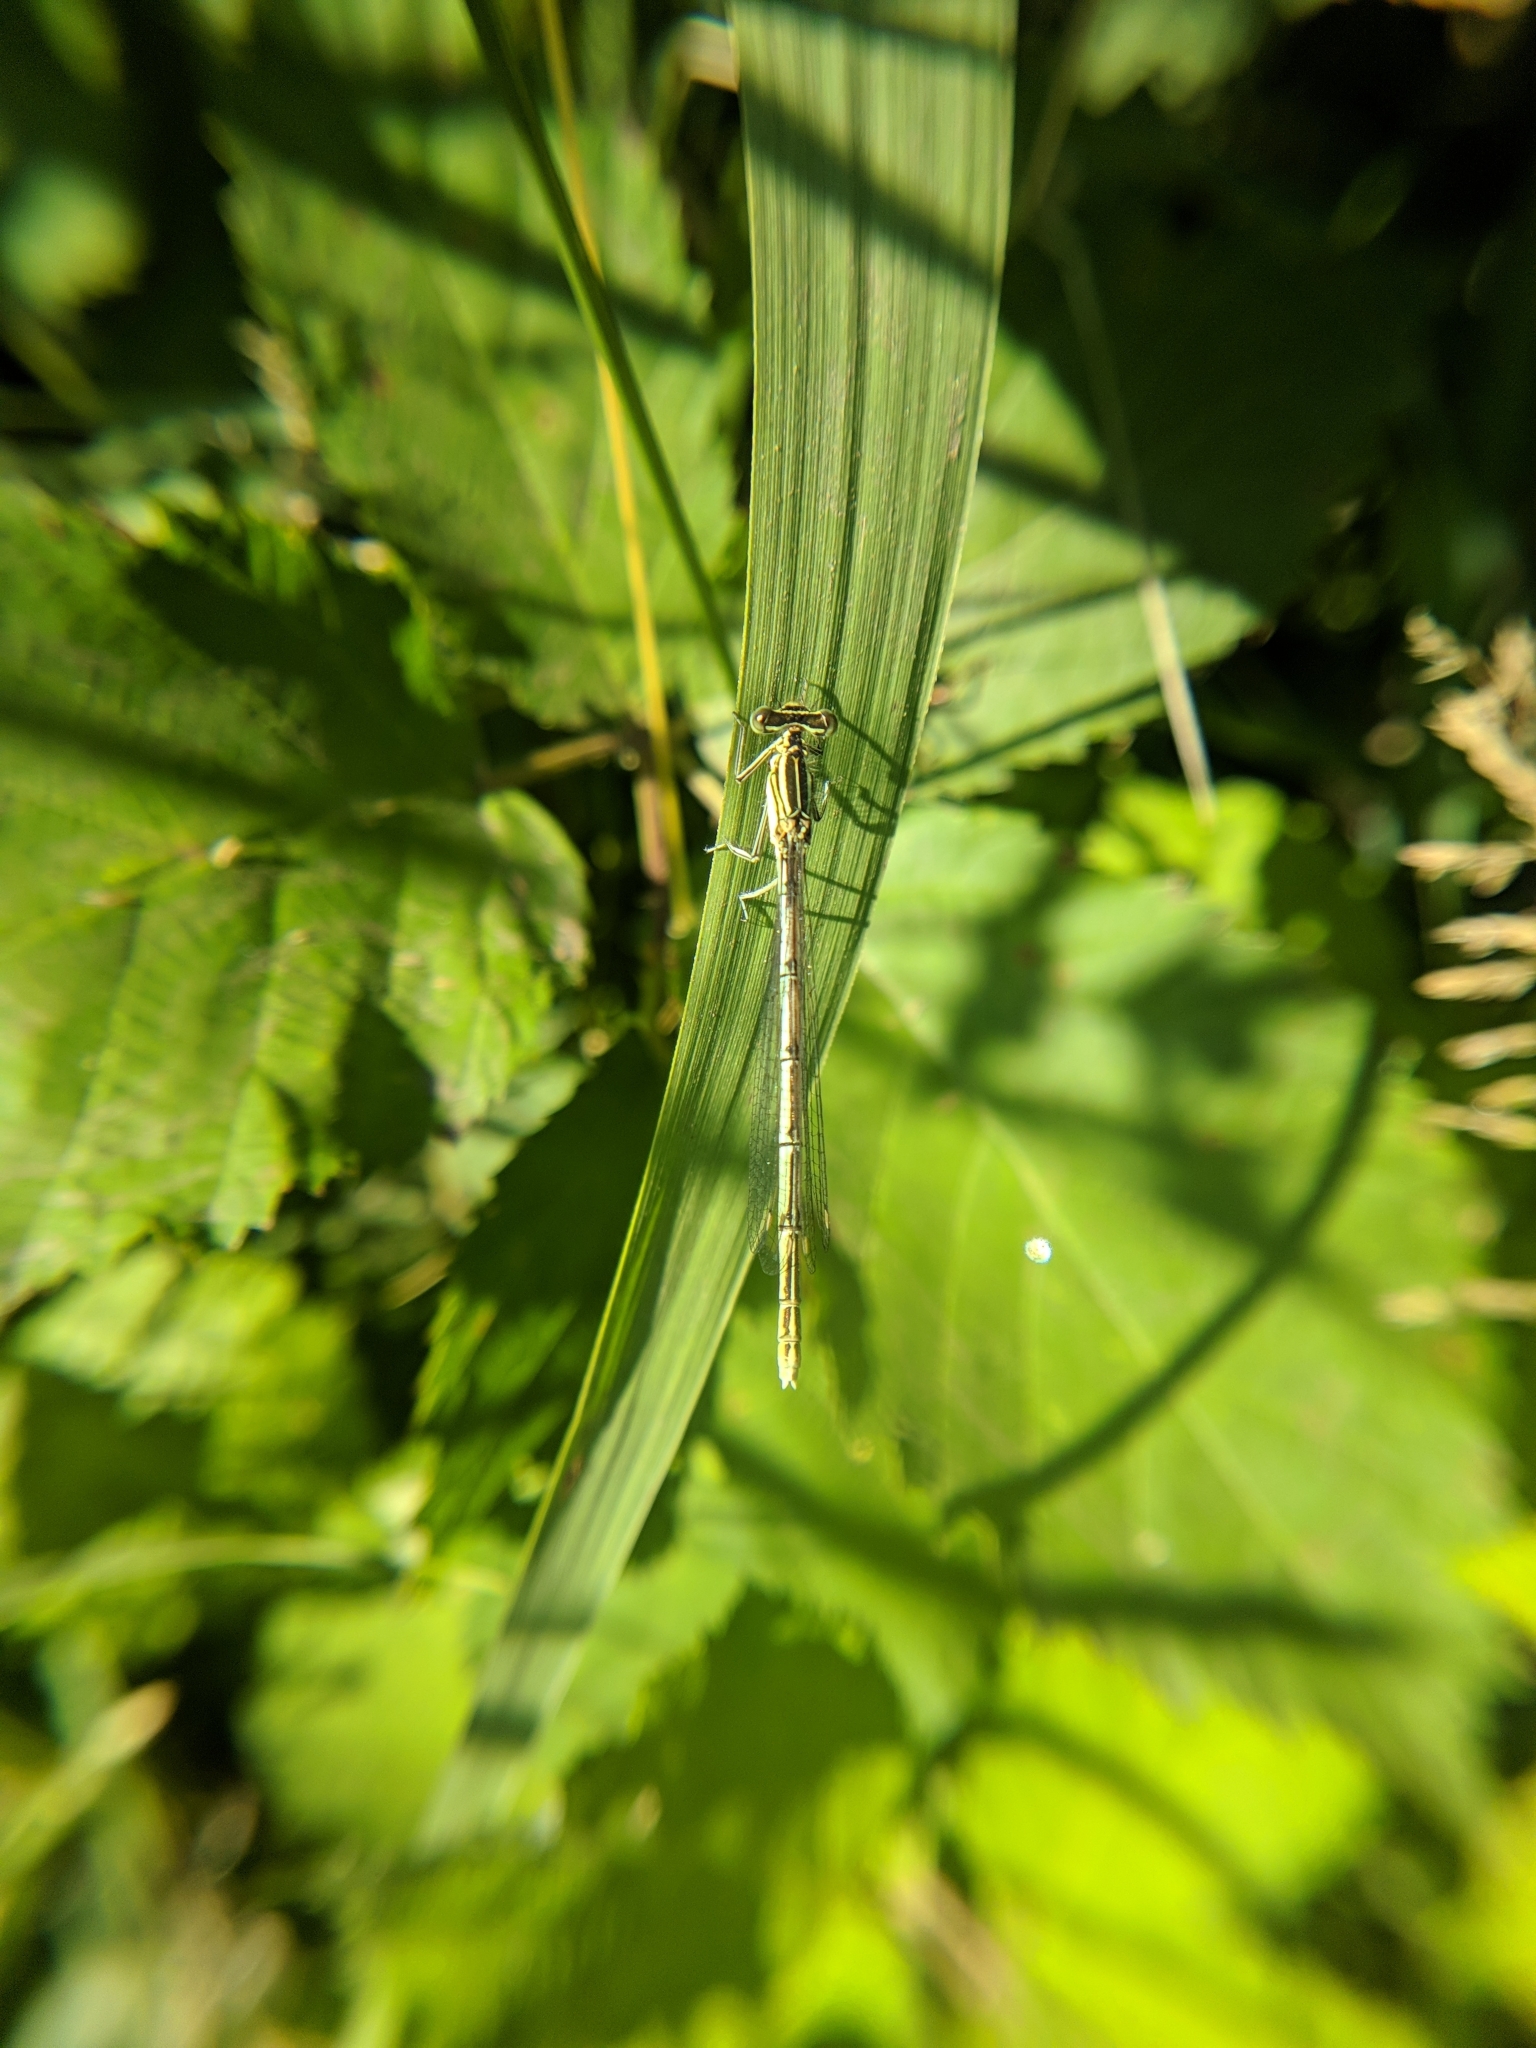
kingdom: Animalia
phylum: Arthropoda
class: Insecta
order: Odonata
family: Platycnemididae
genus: Platycnemis
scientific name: Platycnemis pennipes
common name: White-legged damselfly
